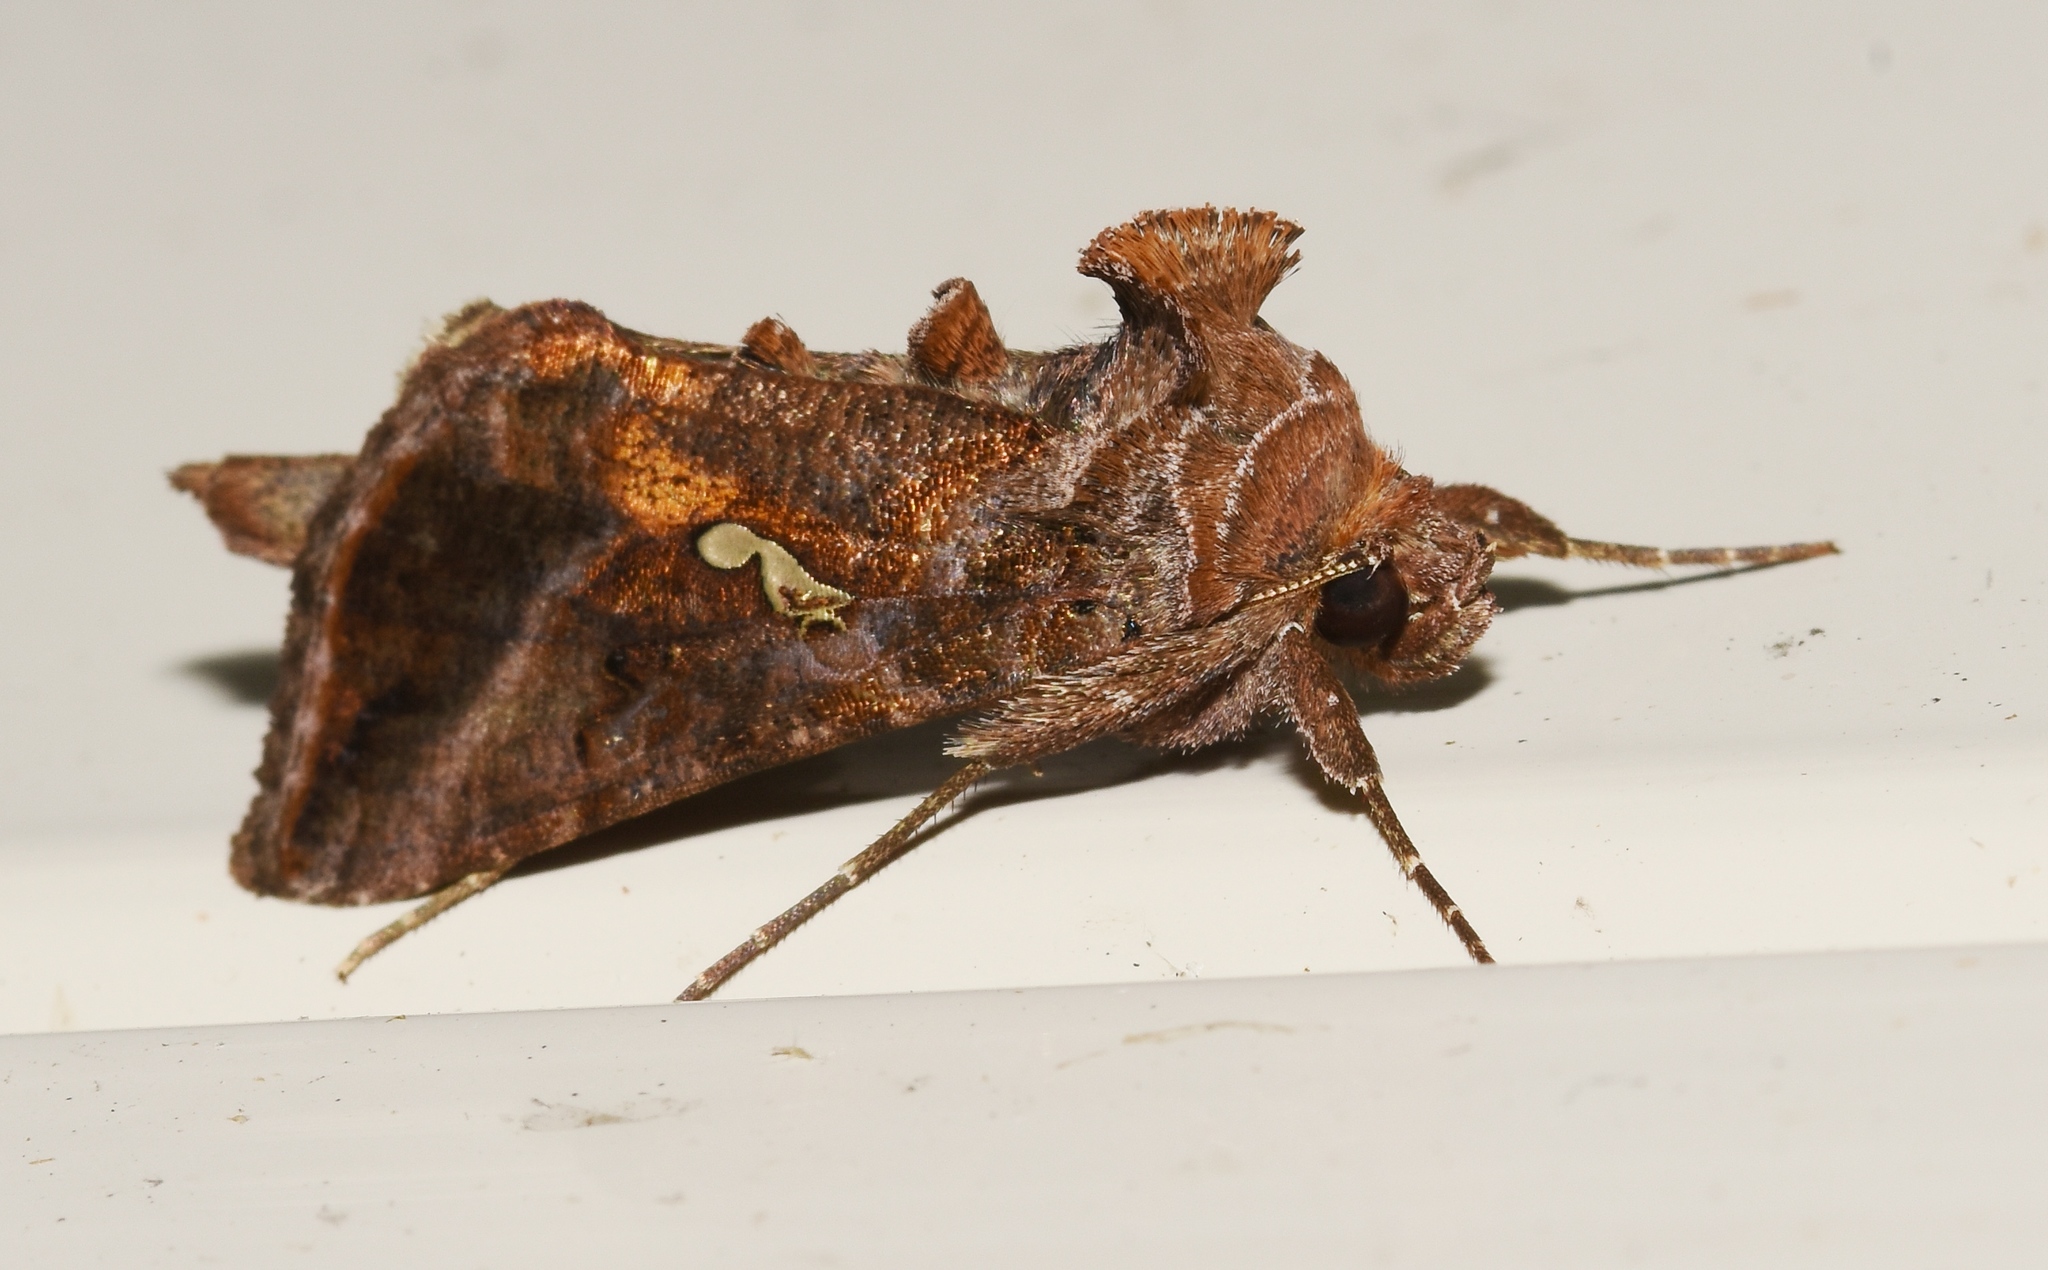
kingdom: Animalia
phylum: Arthropoda
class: Insecta
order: Lepidoptera
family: Noctuidae
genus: Autographa
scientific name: Autographa precationis
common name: Common looper moth
